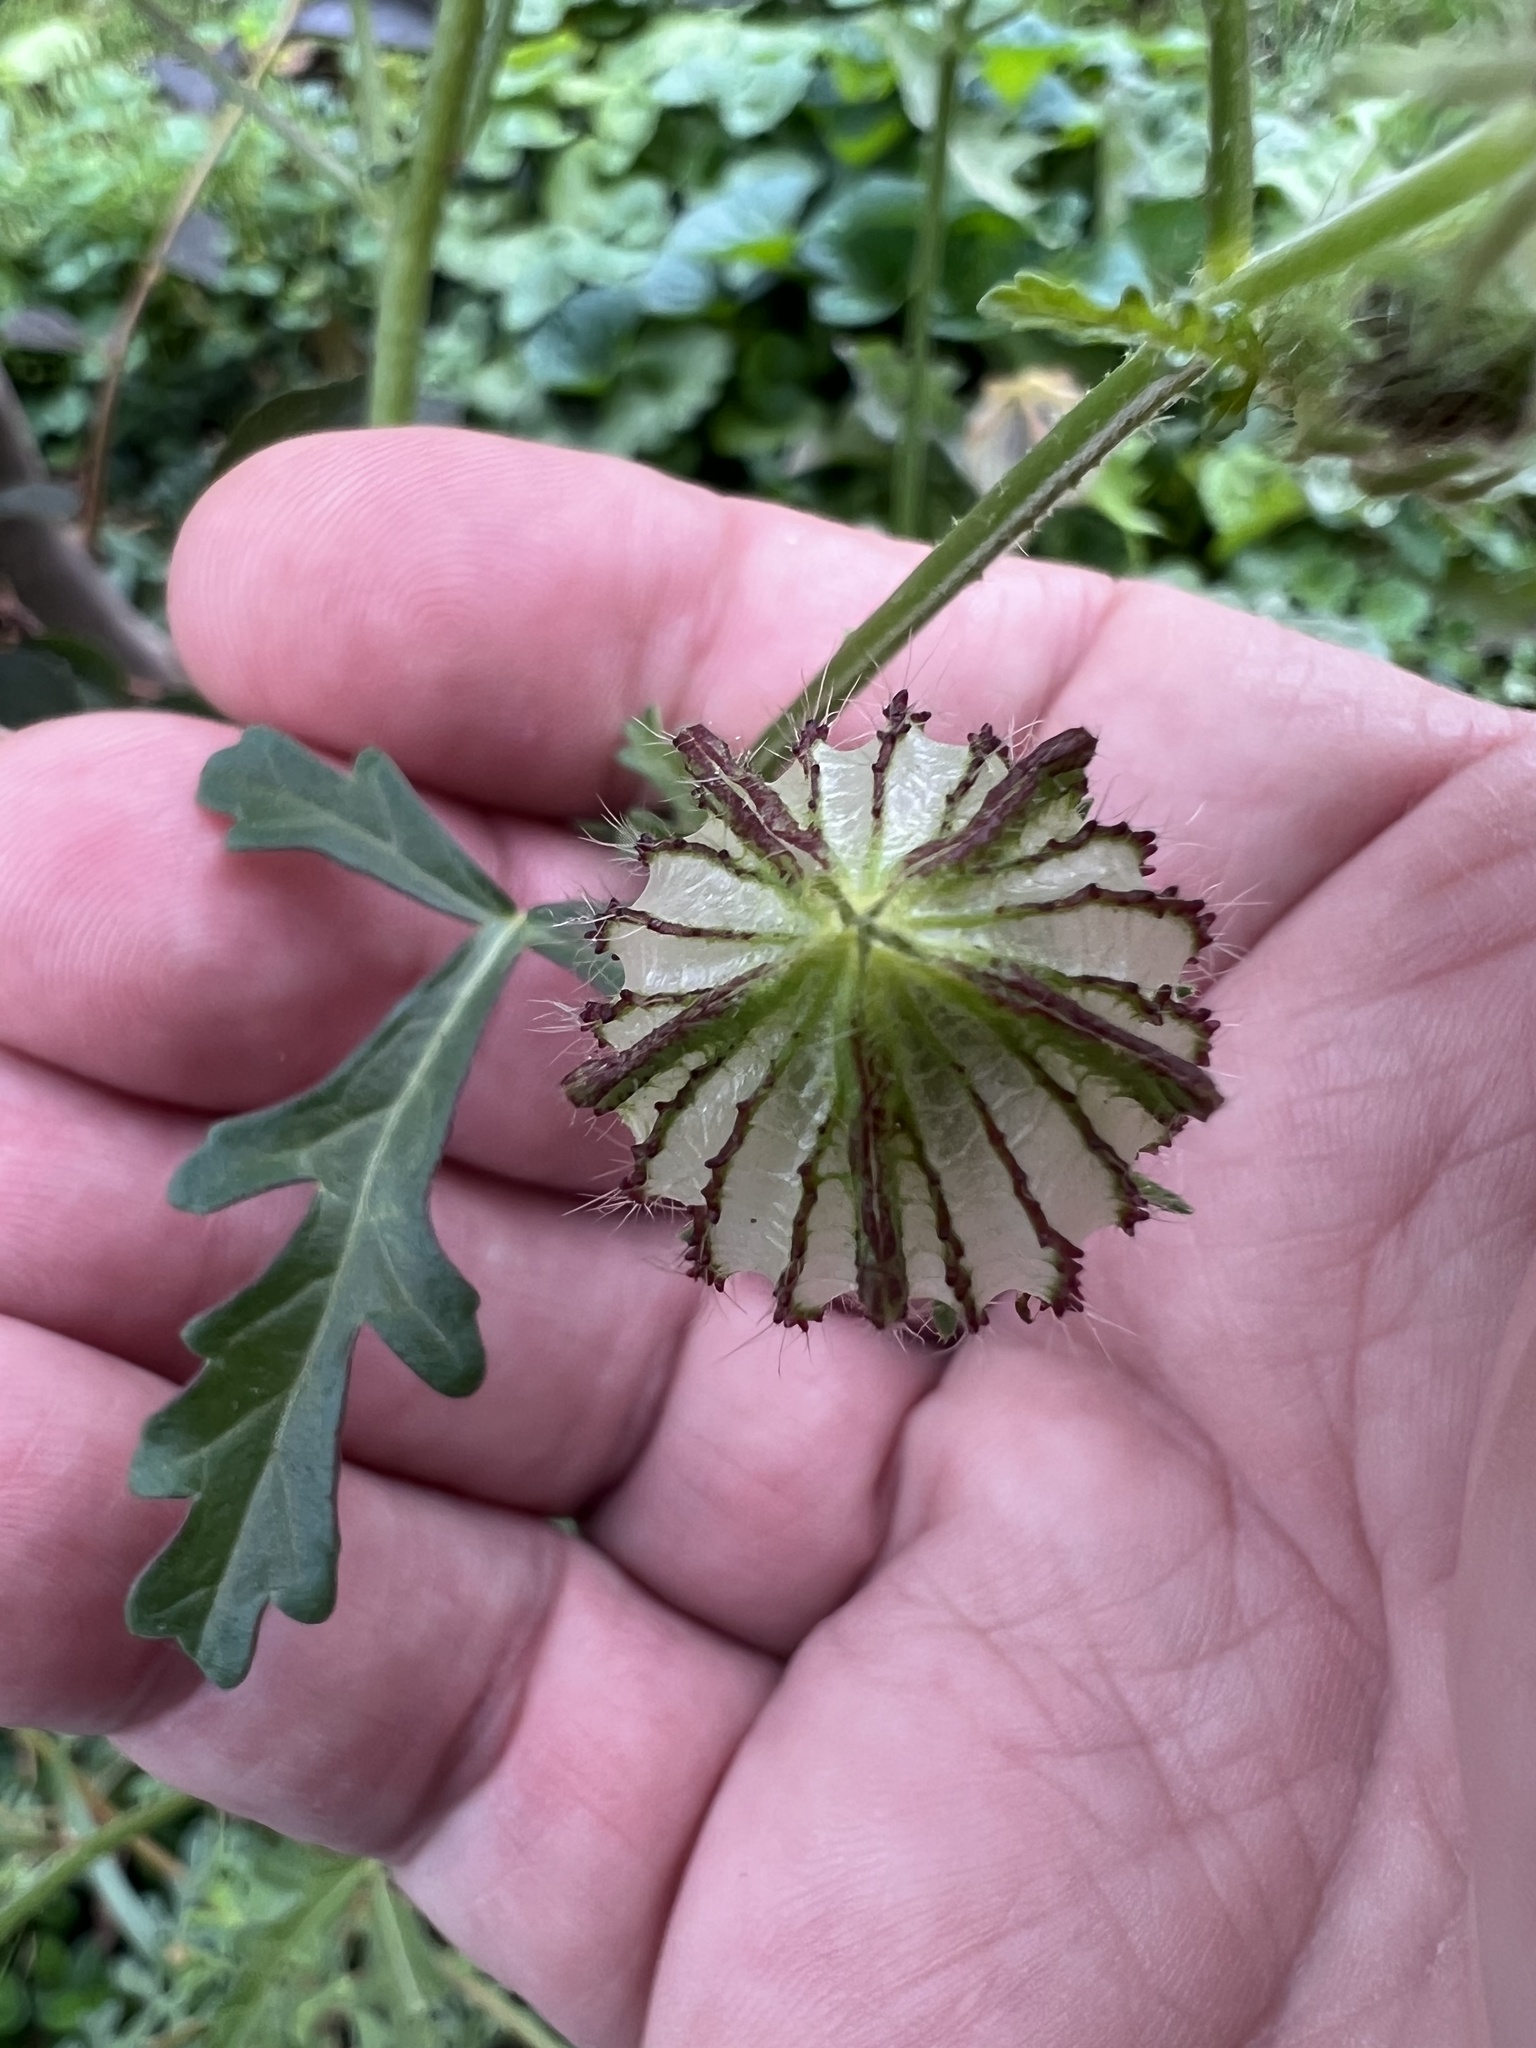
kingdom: Plantae
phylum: Tracheophyta
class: Magnoliopsida
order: Malvales
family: Malvaceae
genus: Hibiscus
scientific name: Hibiscus trionum
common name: Bladder ketmia
